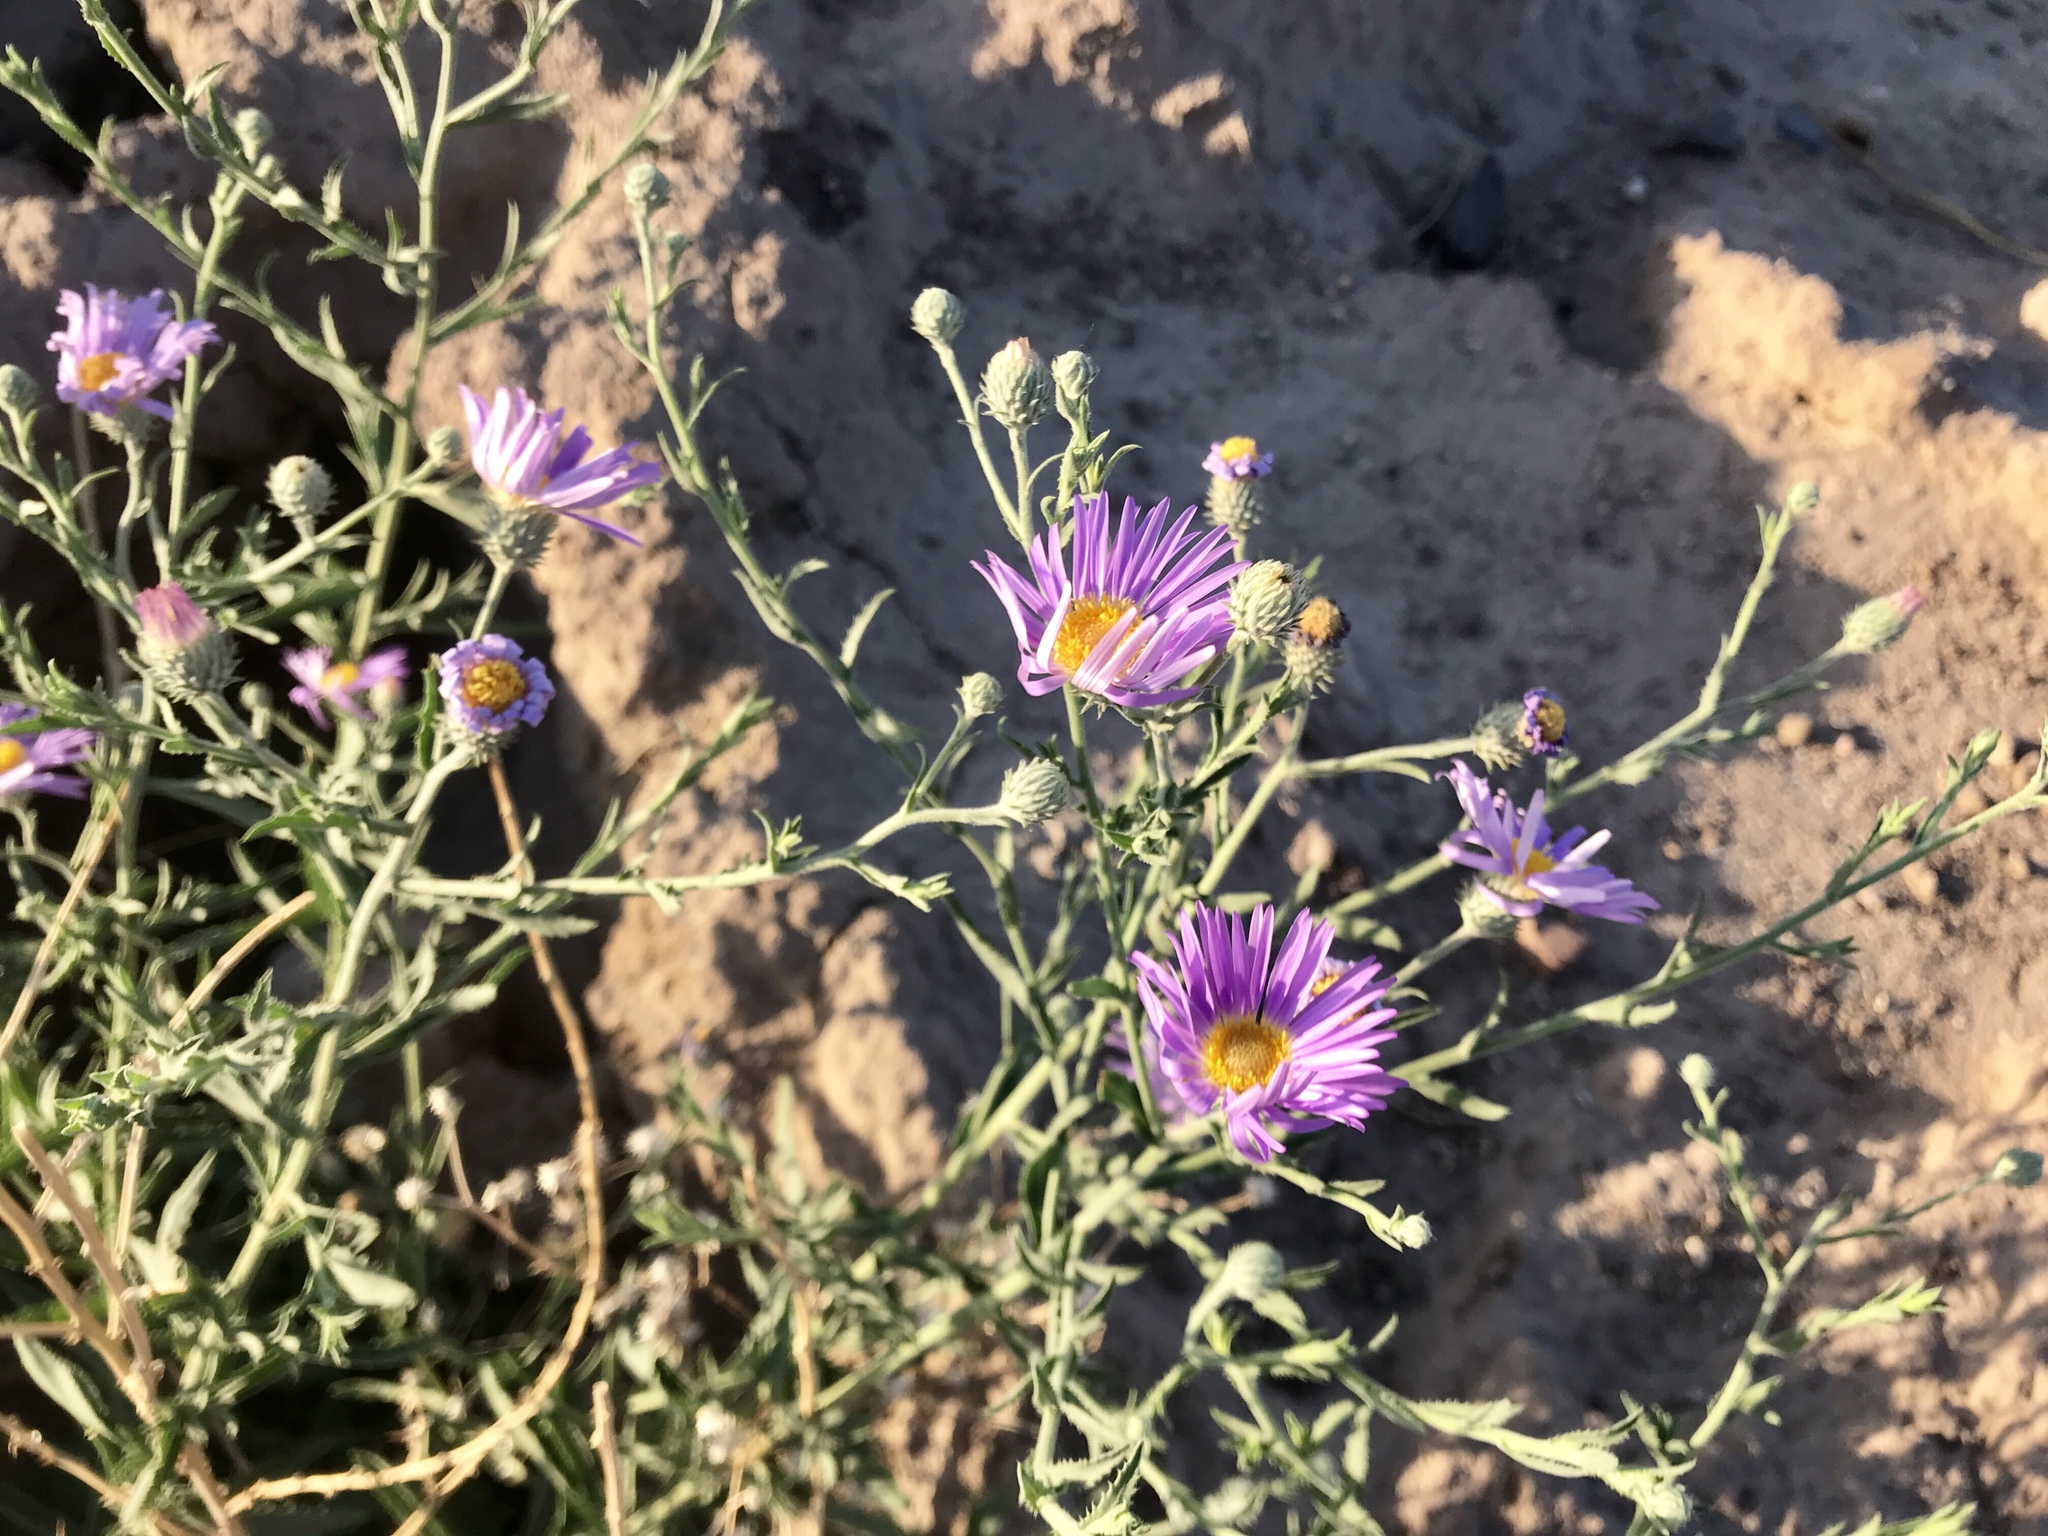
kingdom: Plantae
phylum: Tracheophyta
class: Magnoliopsida
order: Asterales
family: Asteraceae
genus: Machaeranthera
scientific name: Machaeranthera tanacetifolia
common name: Tansy-aster
